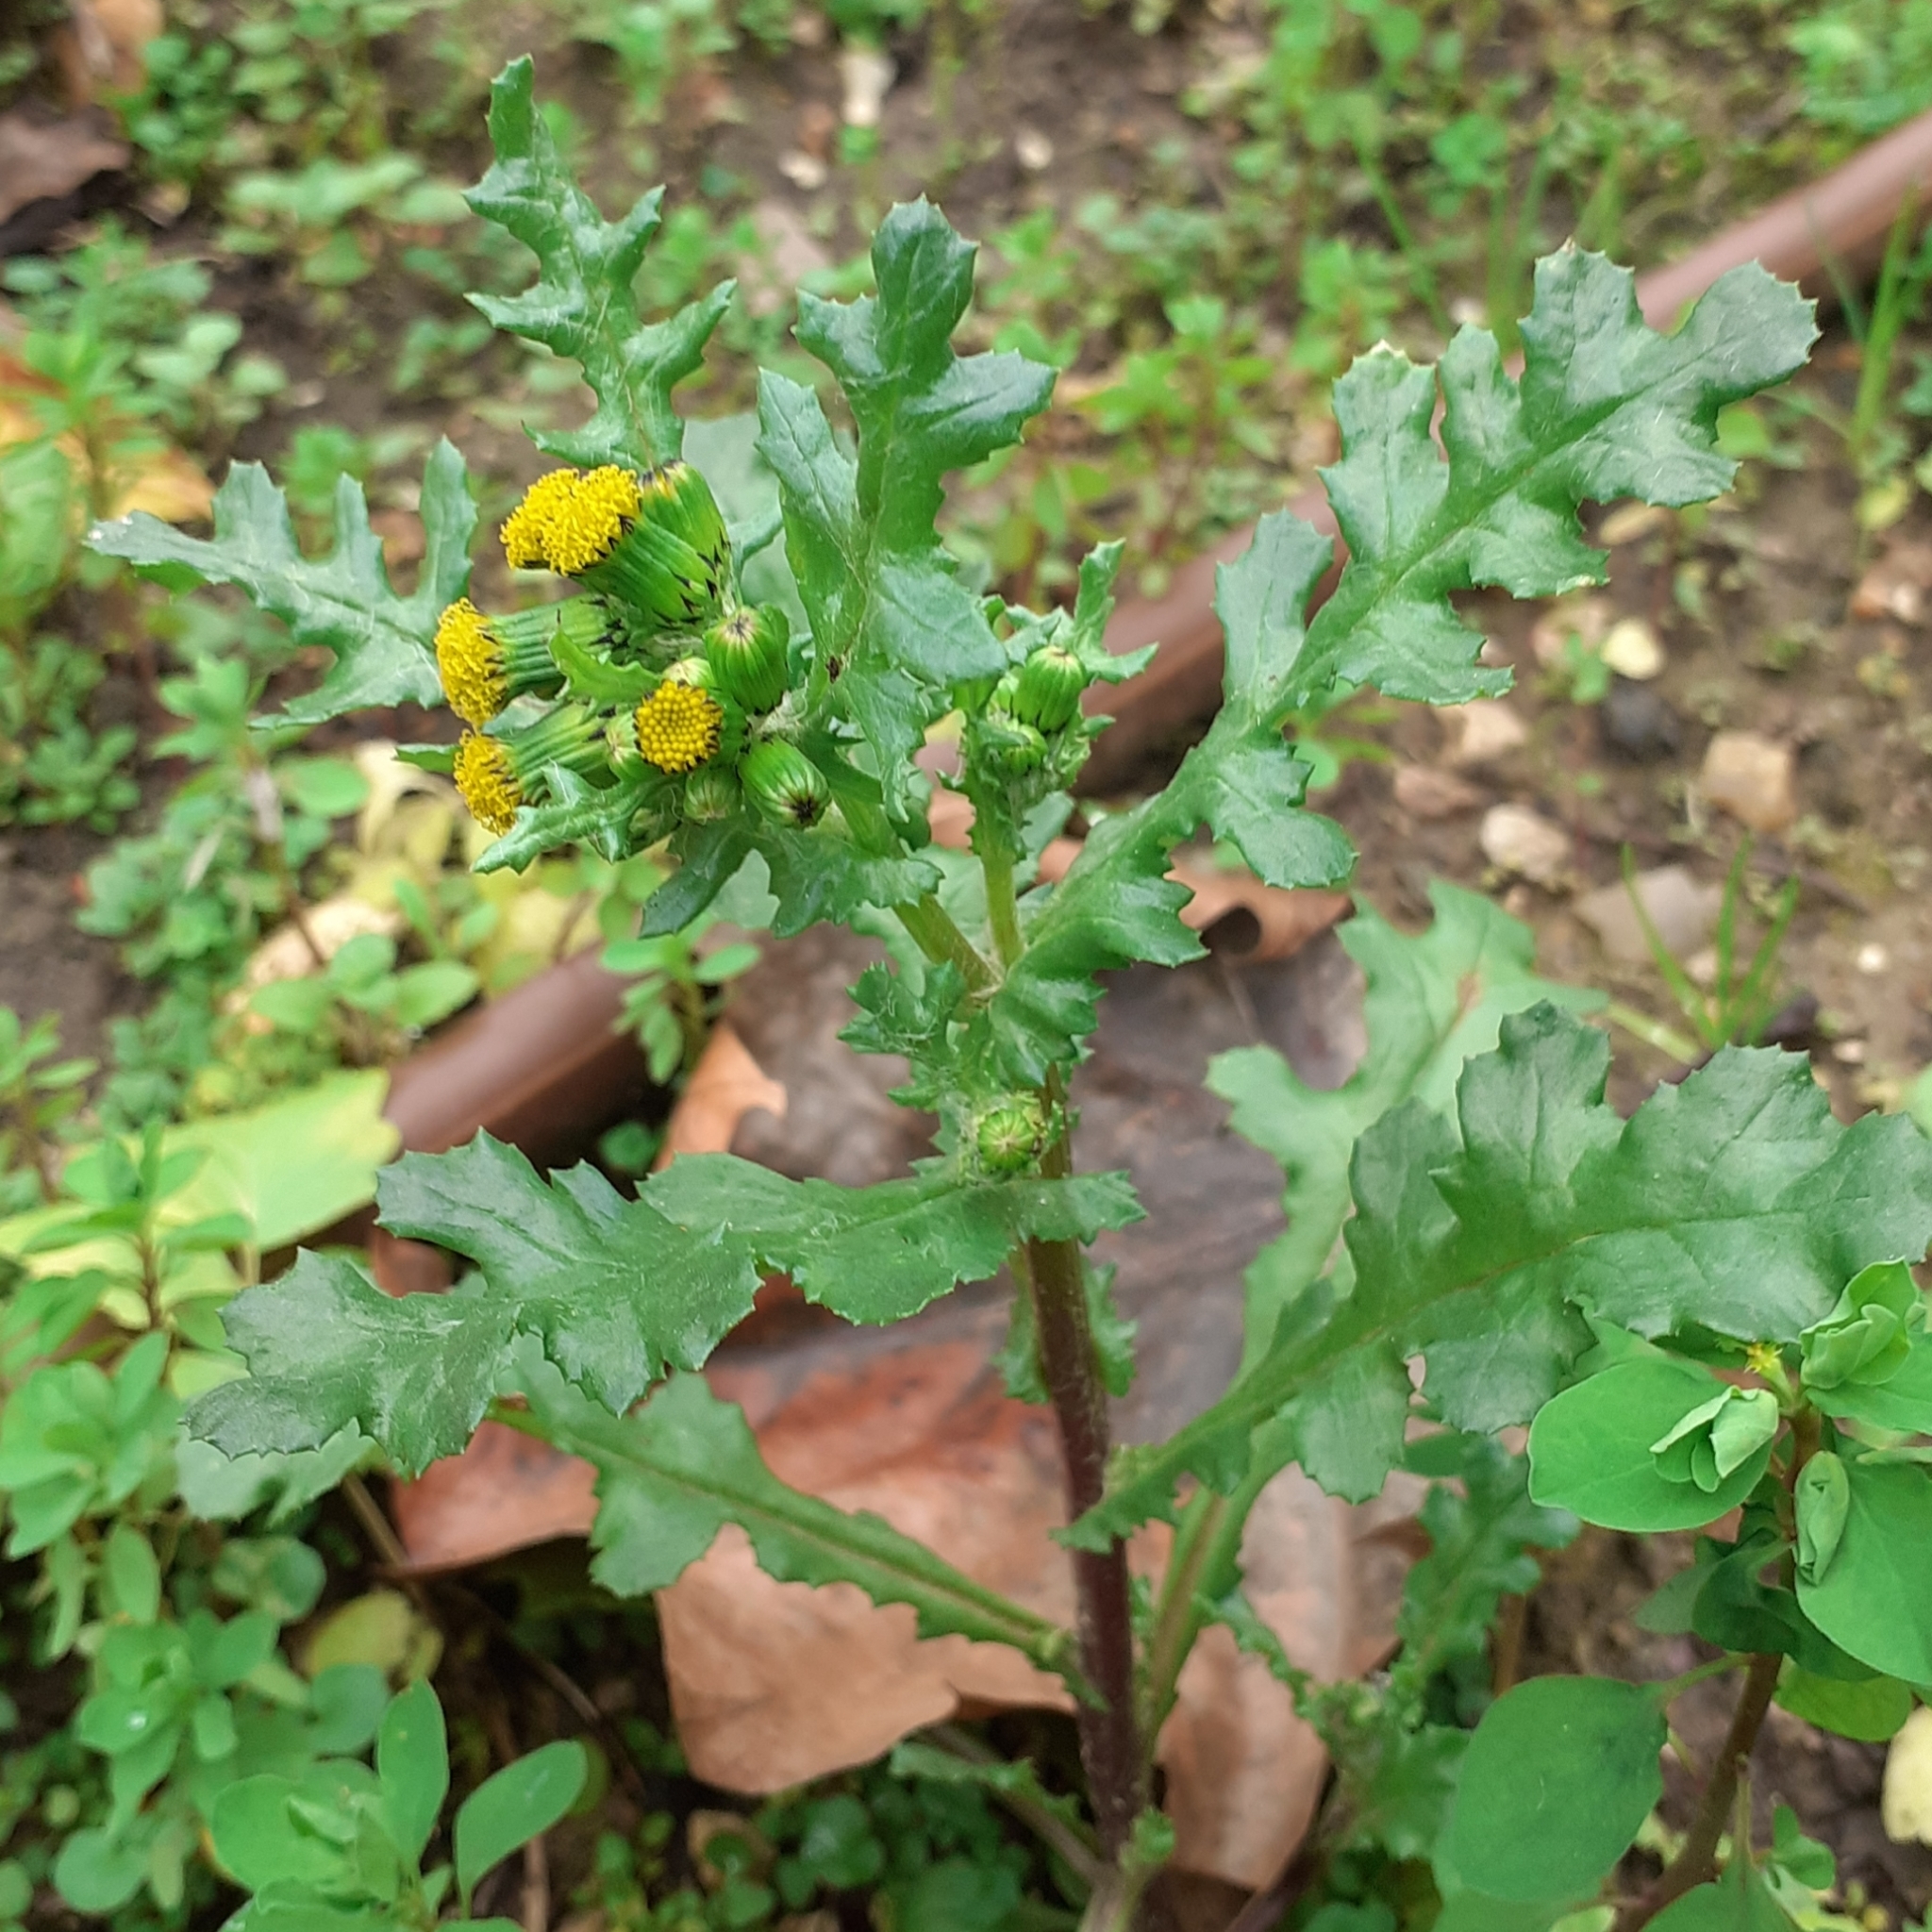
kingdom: Plantae
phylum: Tracheophyta
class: Magnoliopsida
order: Asterales
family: Asteraceae
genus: Senecio
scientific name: Senecio vulgaris
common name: Old-man-in-the-spring
